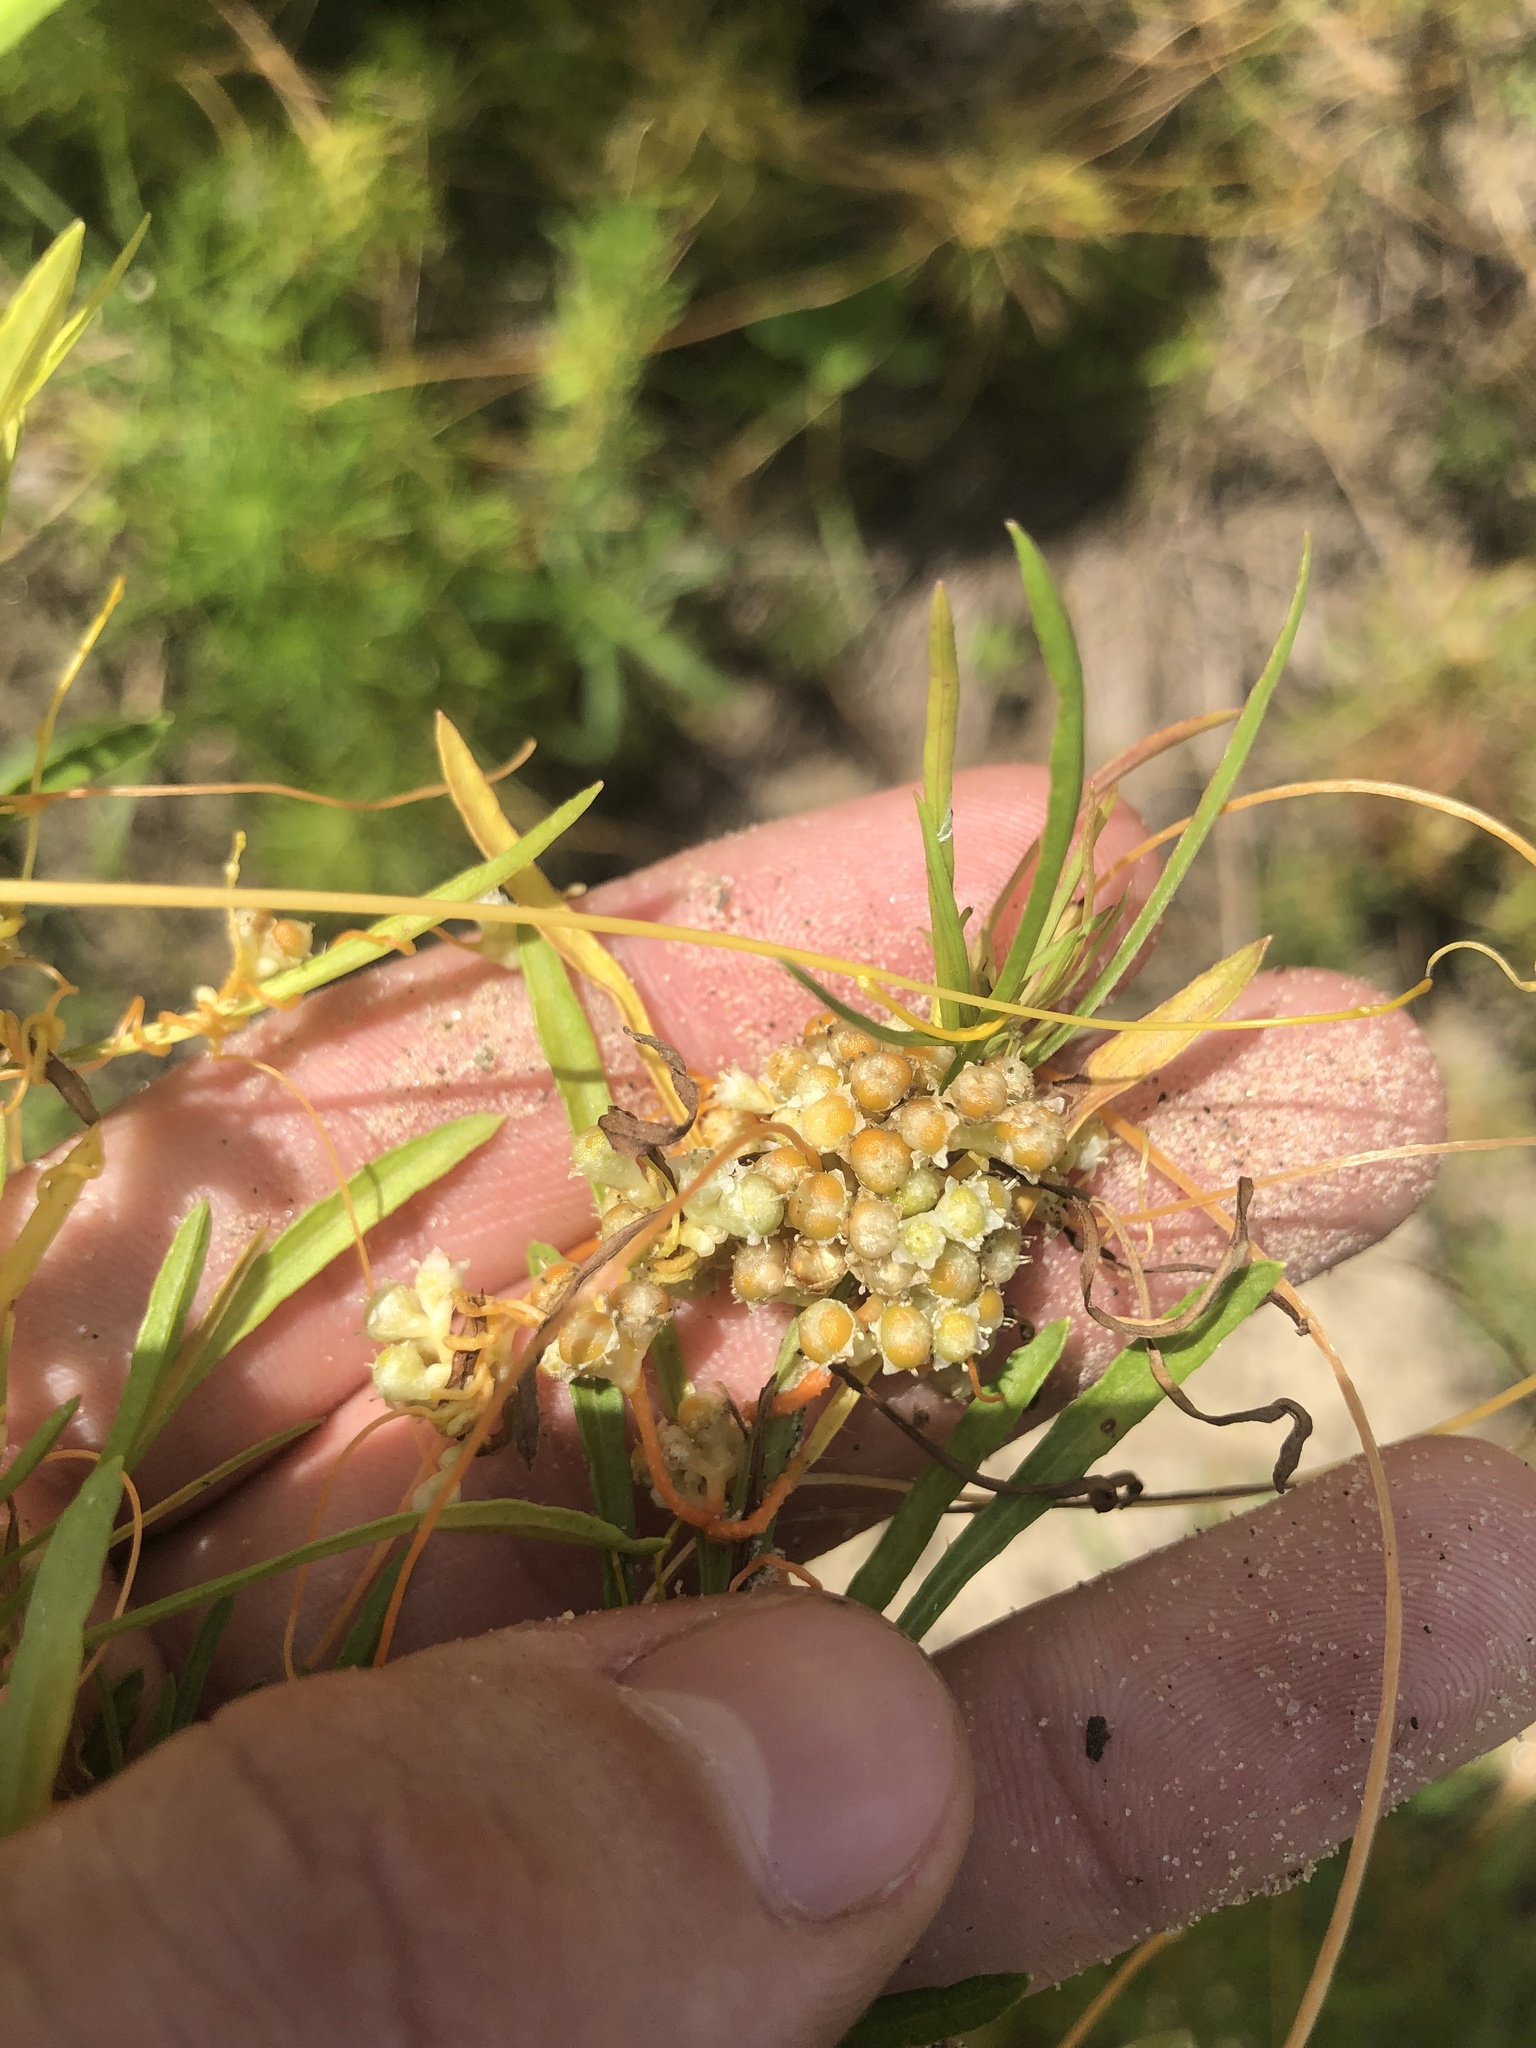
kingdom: Plantae
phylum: Tracheophyta
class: Magnoliopsida
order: Solanales
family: Convolvulaceae
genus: Cuscuta
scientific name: Cuscuta campestris
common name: Yellow dodder
